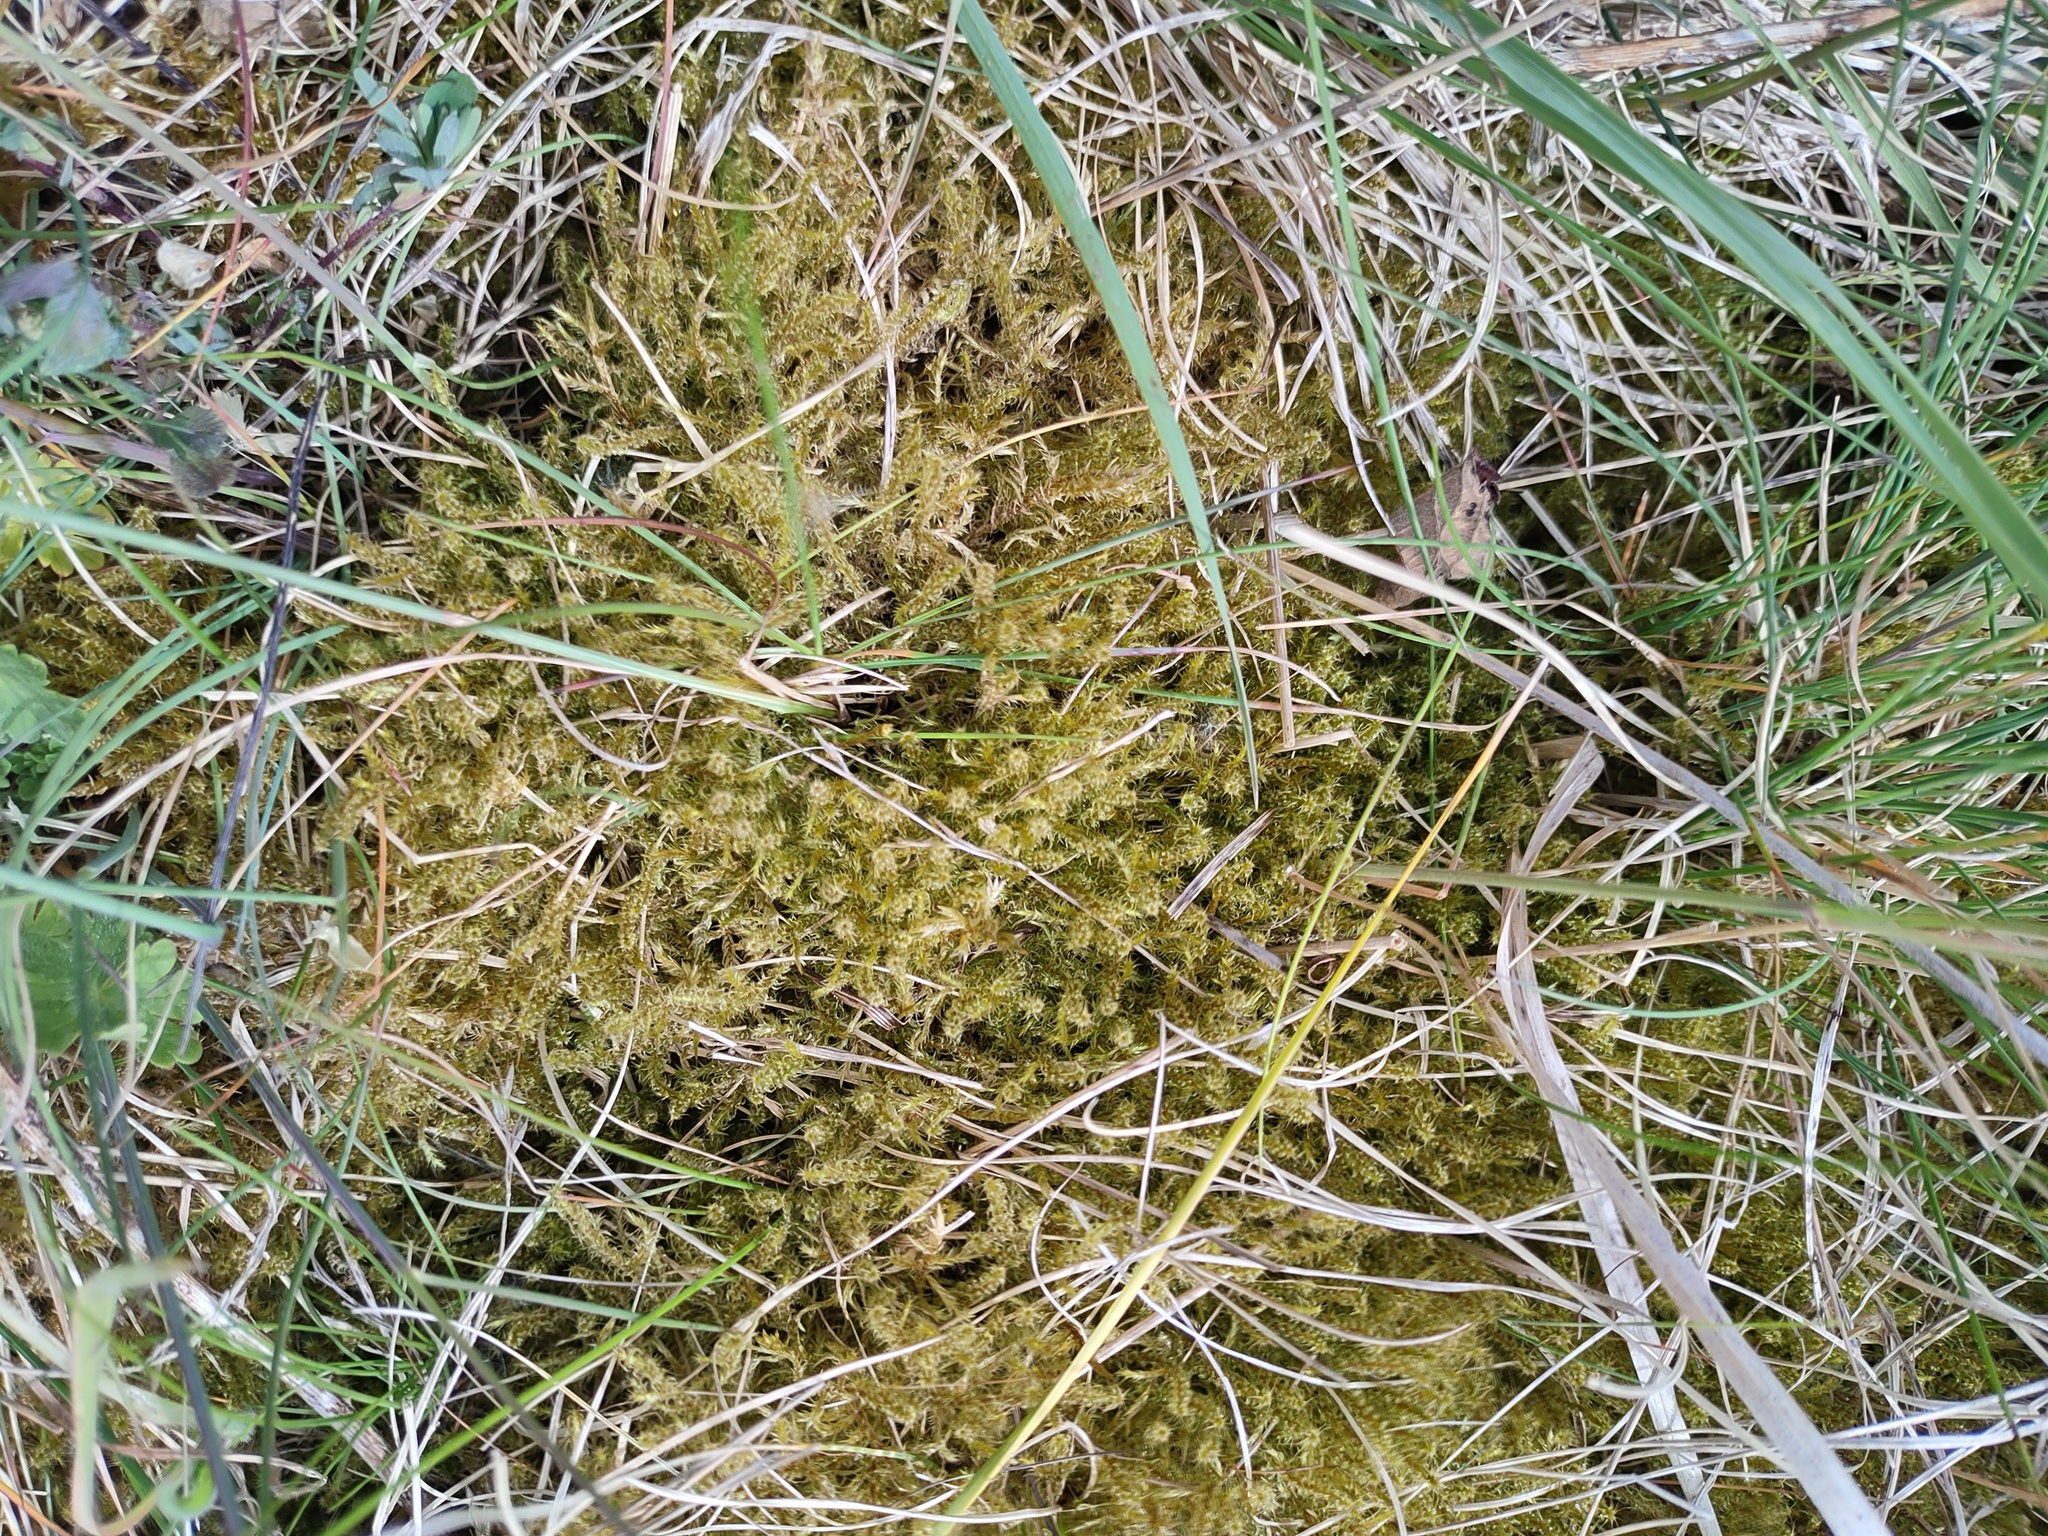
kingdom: Plantae
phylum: Bryophyta
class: Bryopsida
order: Hypnales
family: Hylocomiaceae
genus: Rhytidiadelphus
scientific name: Rhytidiadelphus squarrosus
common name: Springy turf-moss
